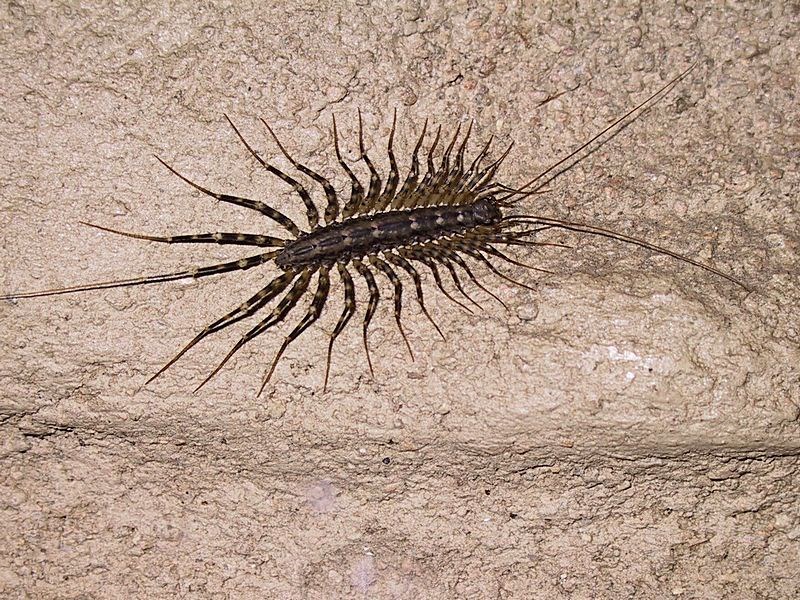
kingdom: Animalia
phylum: Arthropoda
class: Chilopoda
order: Scutigeromorpha
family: Scutigeridae
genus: Allothereua
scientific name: Allothereua maculata
